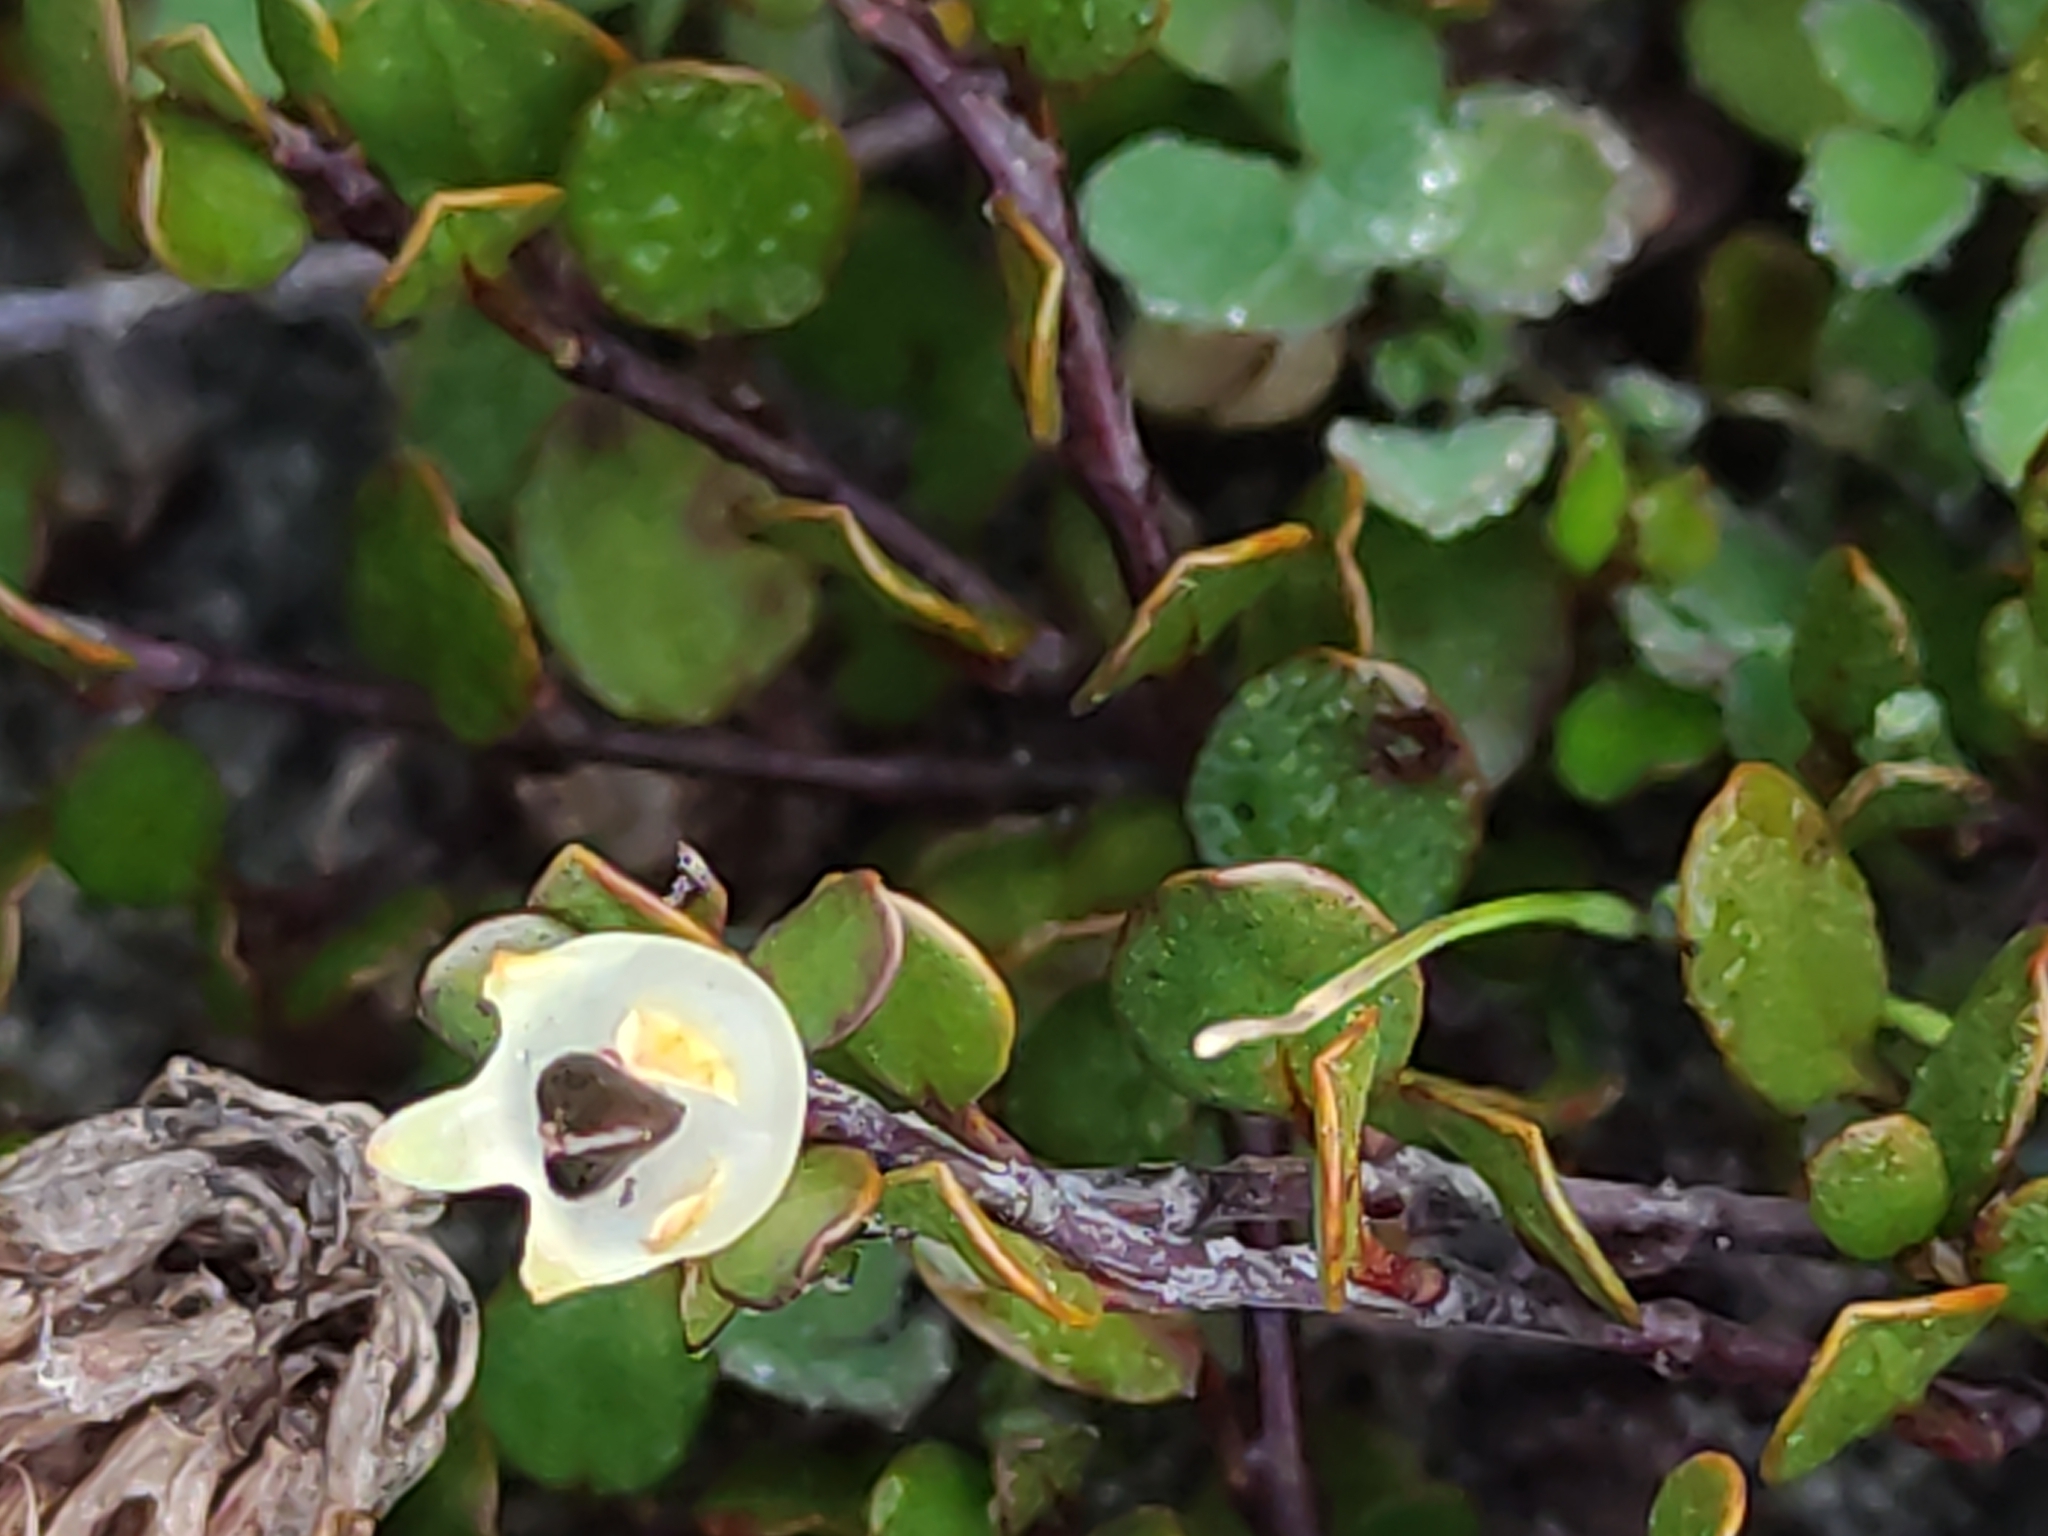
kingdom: Plantae
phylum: Tracheophyta
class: Magnoliopsida
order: Caryophyllales
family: Polygonaceae
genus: Muehlenbeckia
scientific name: Muehlenbeckia axillaris
